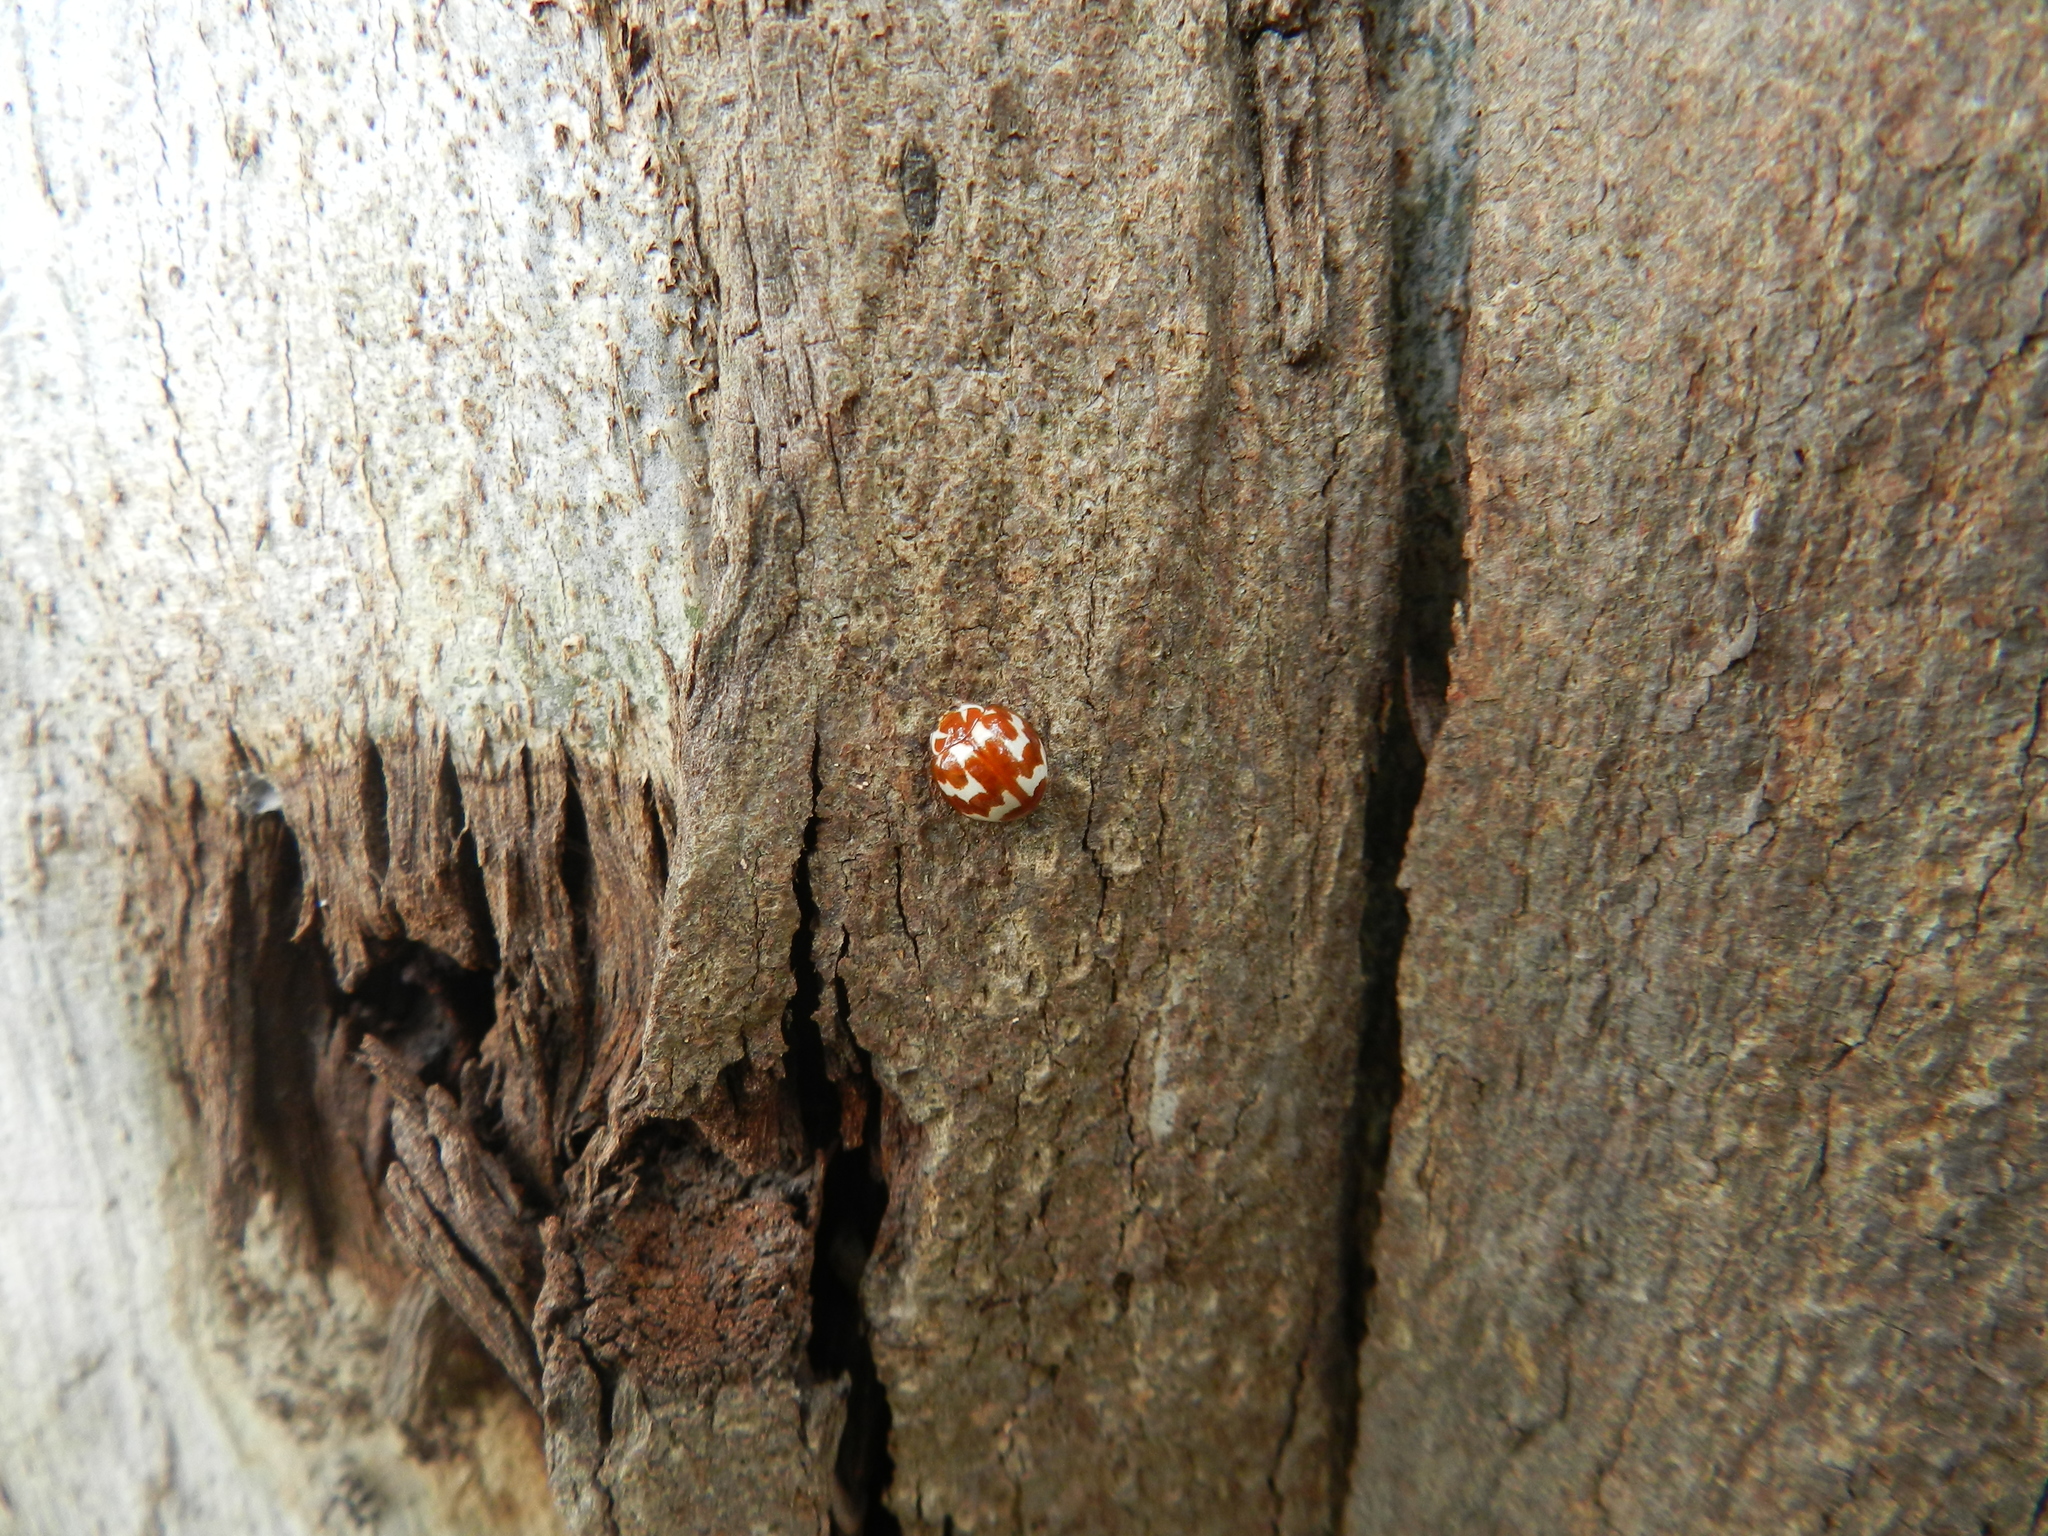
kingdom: Animalia
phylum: Arthropoda
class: Insecta
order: Coleoptera
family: Coccinellidae
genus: Neocalvia
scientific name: Neocalvia
